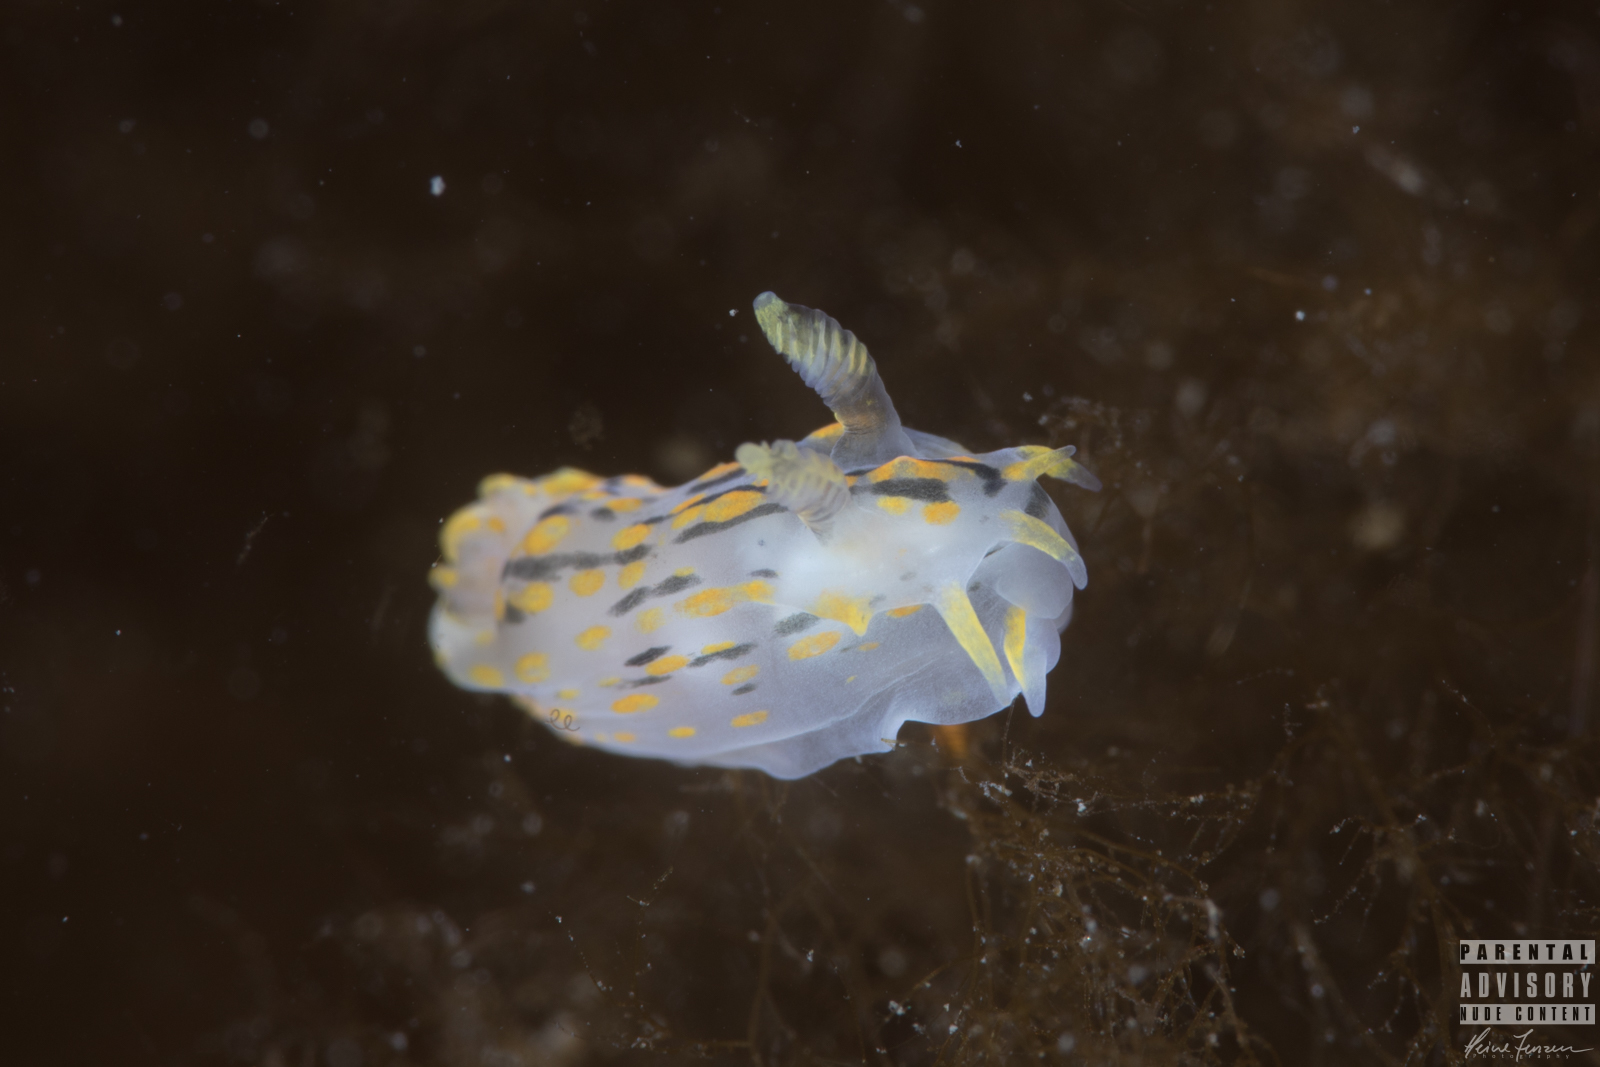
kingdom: Animalia
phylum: Mollusca
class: Gastropoda
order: Nudibranchia
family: Polyceridae
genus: Polycera
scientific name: Polycera quadrilineata
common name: Four-striped polycera
